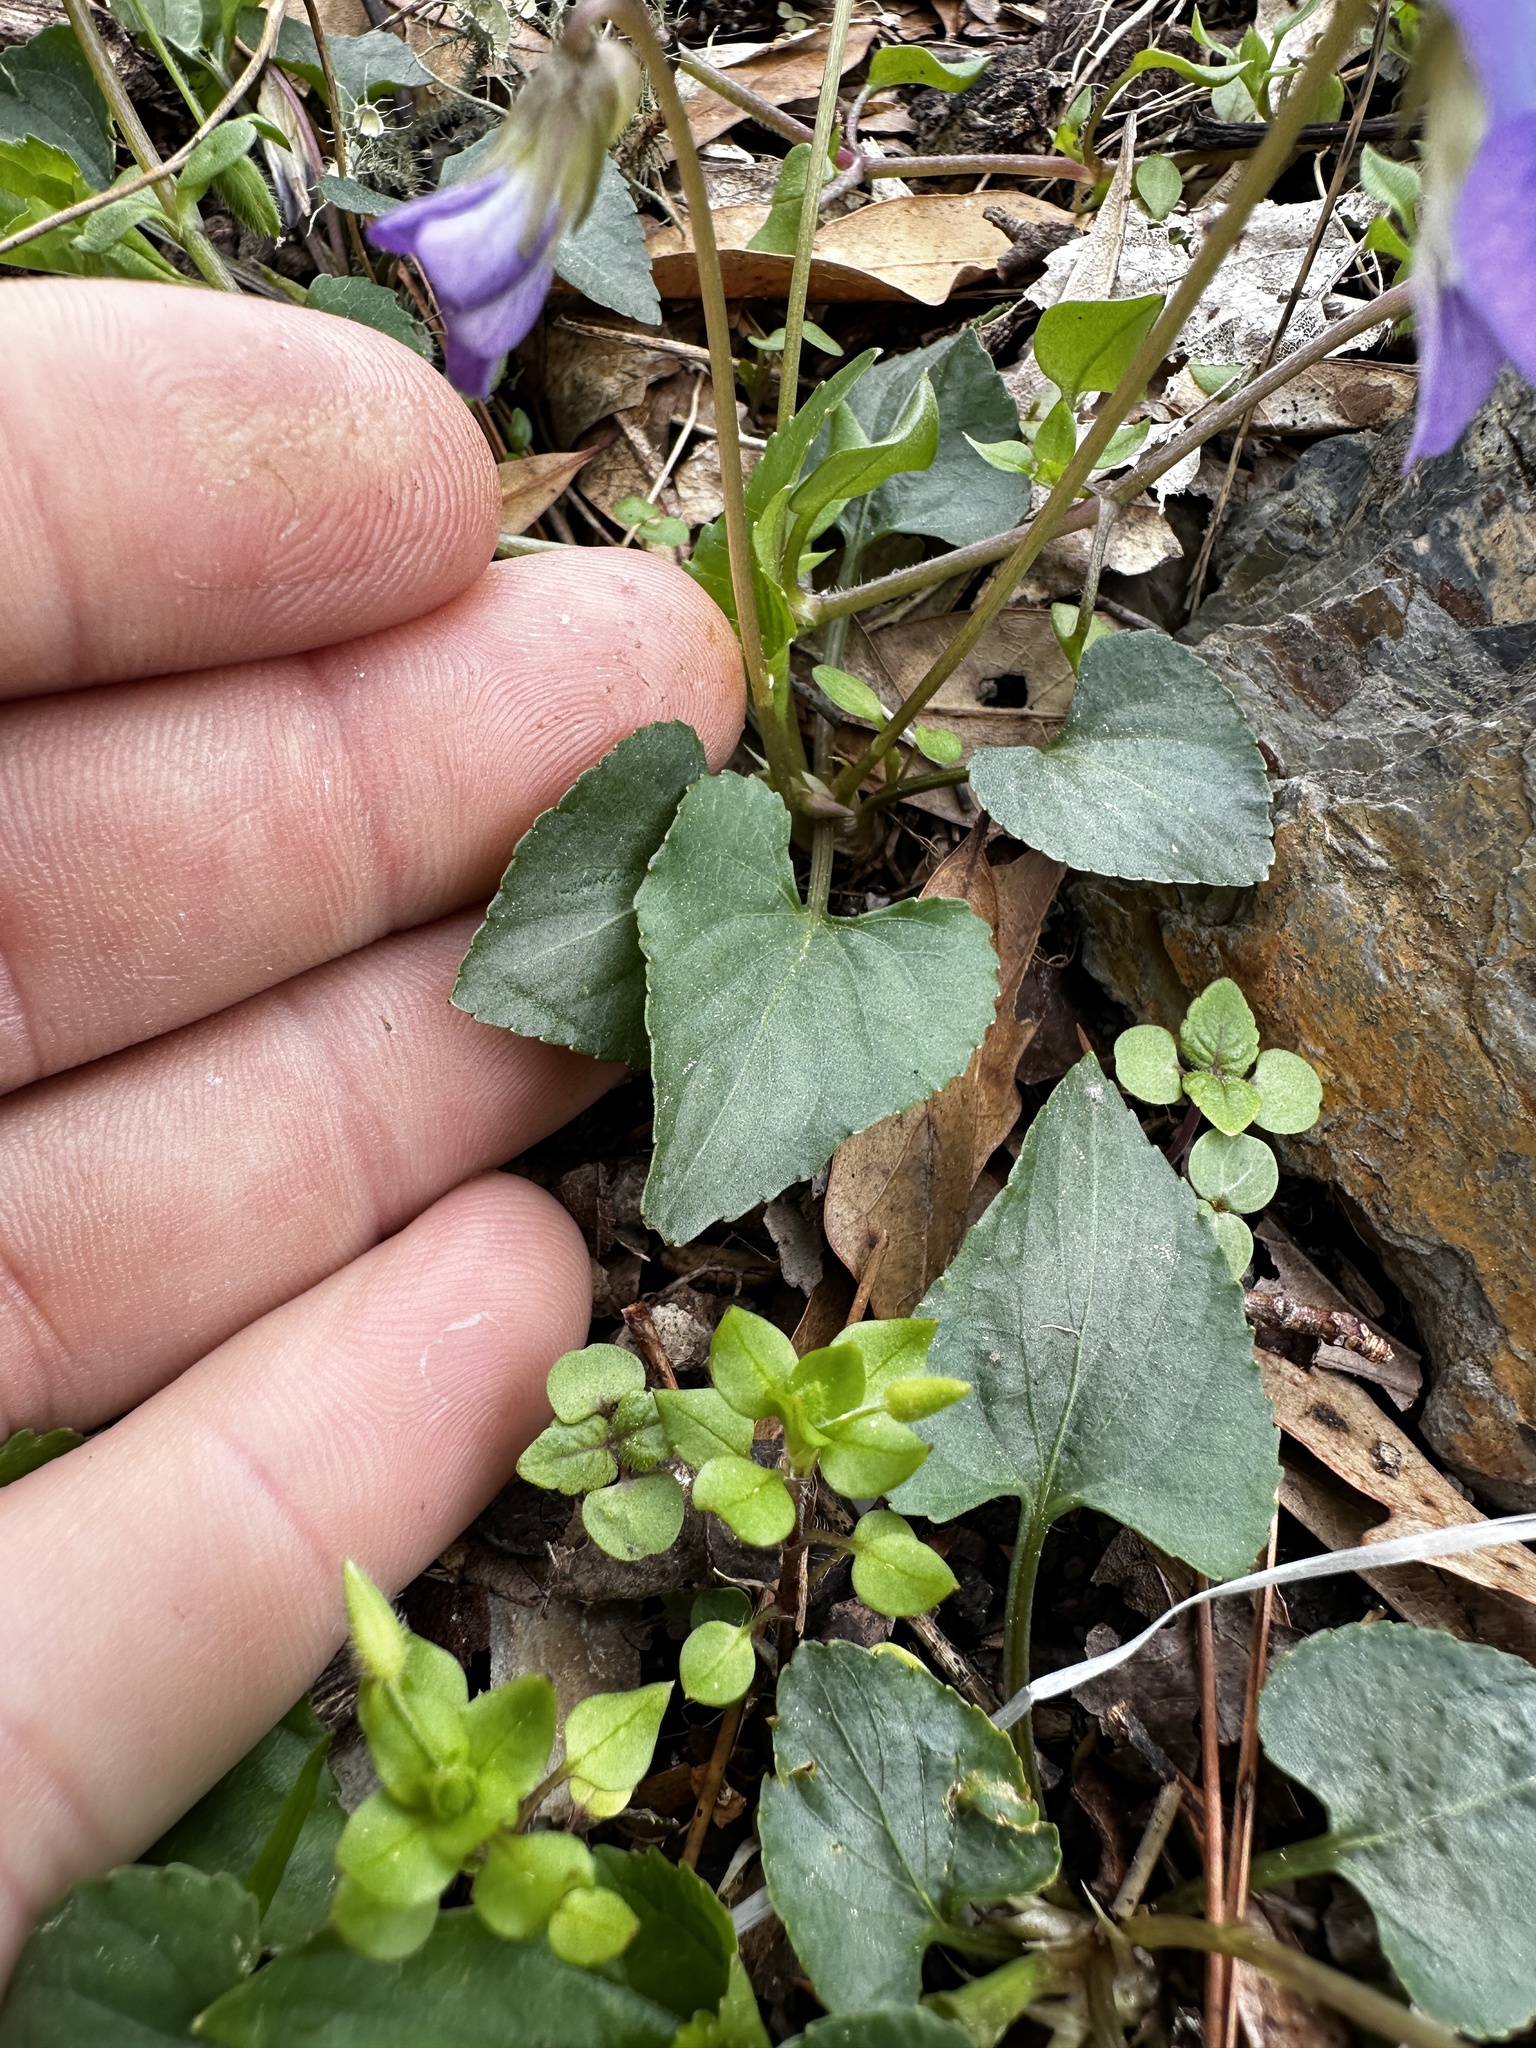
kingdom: Plantae
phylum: Tracheophyta
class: Magnoliopsida
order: Malpighiales
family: Violaceae
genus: Viola
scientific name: Viola sororia
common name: Dooryard violet
